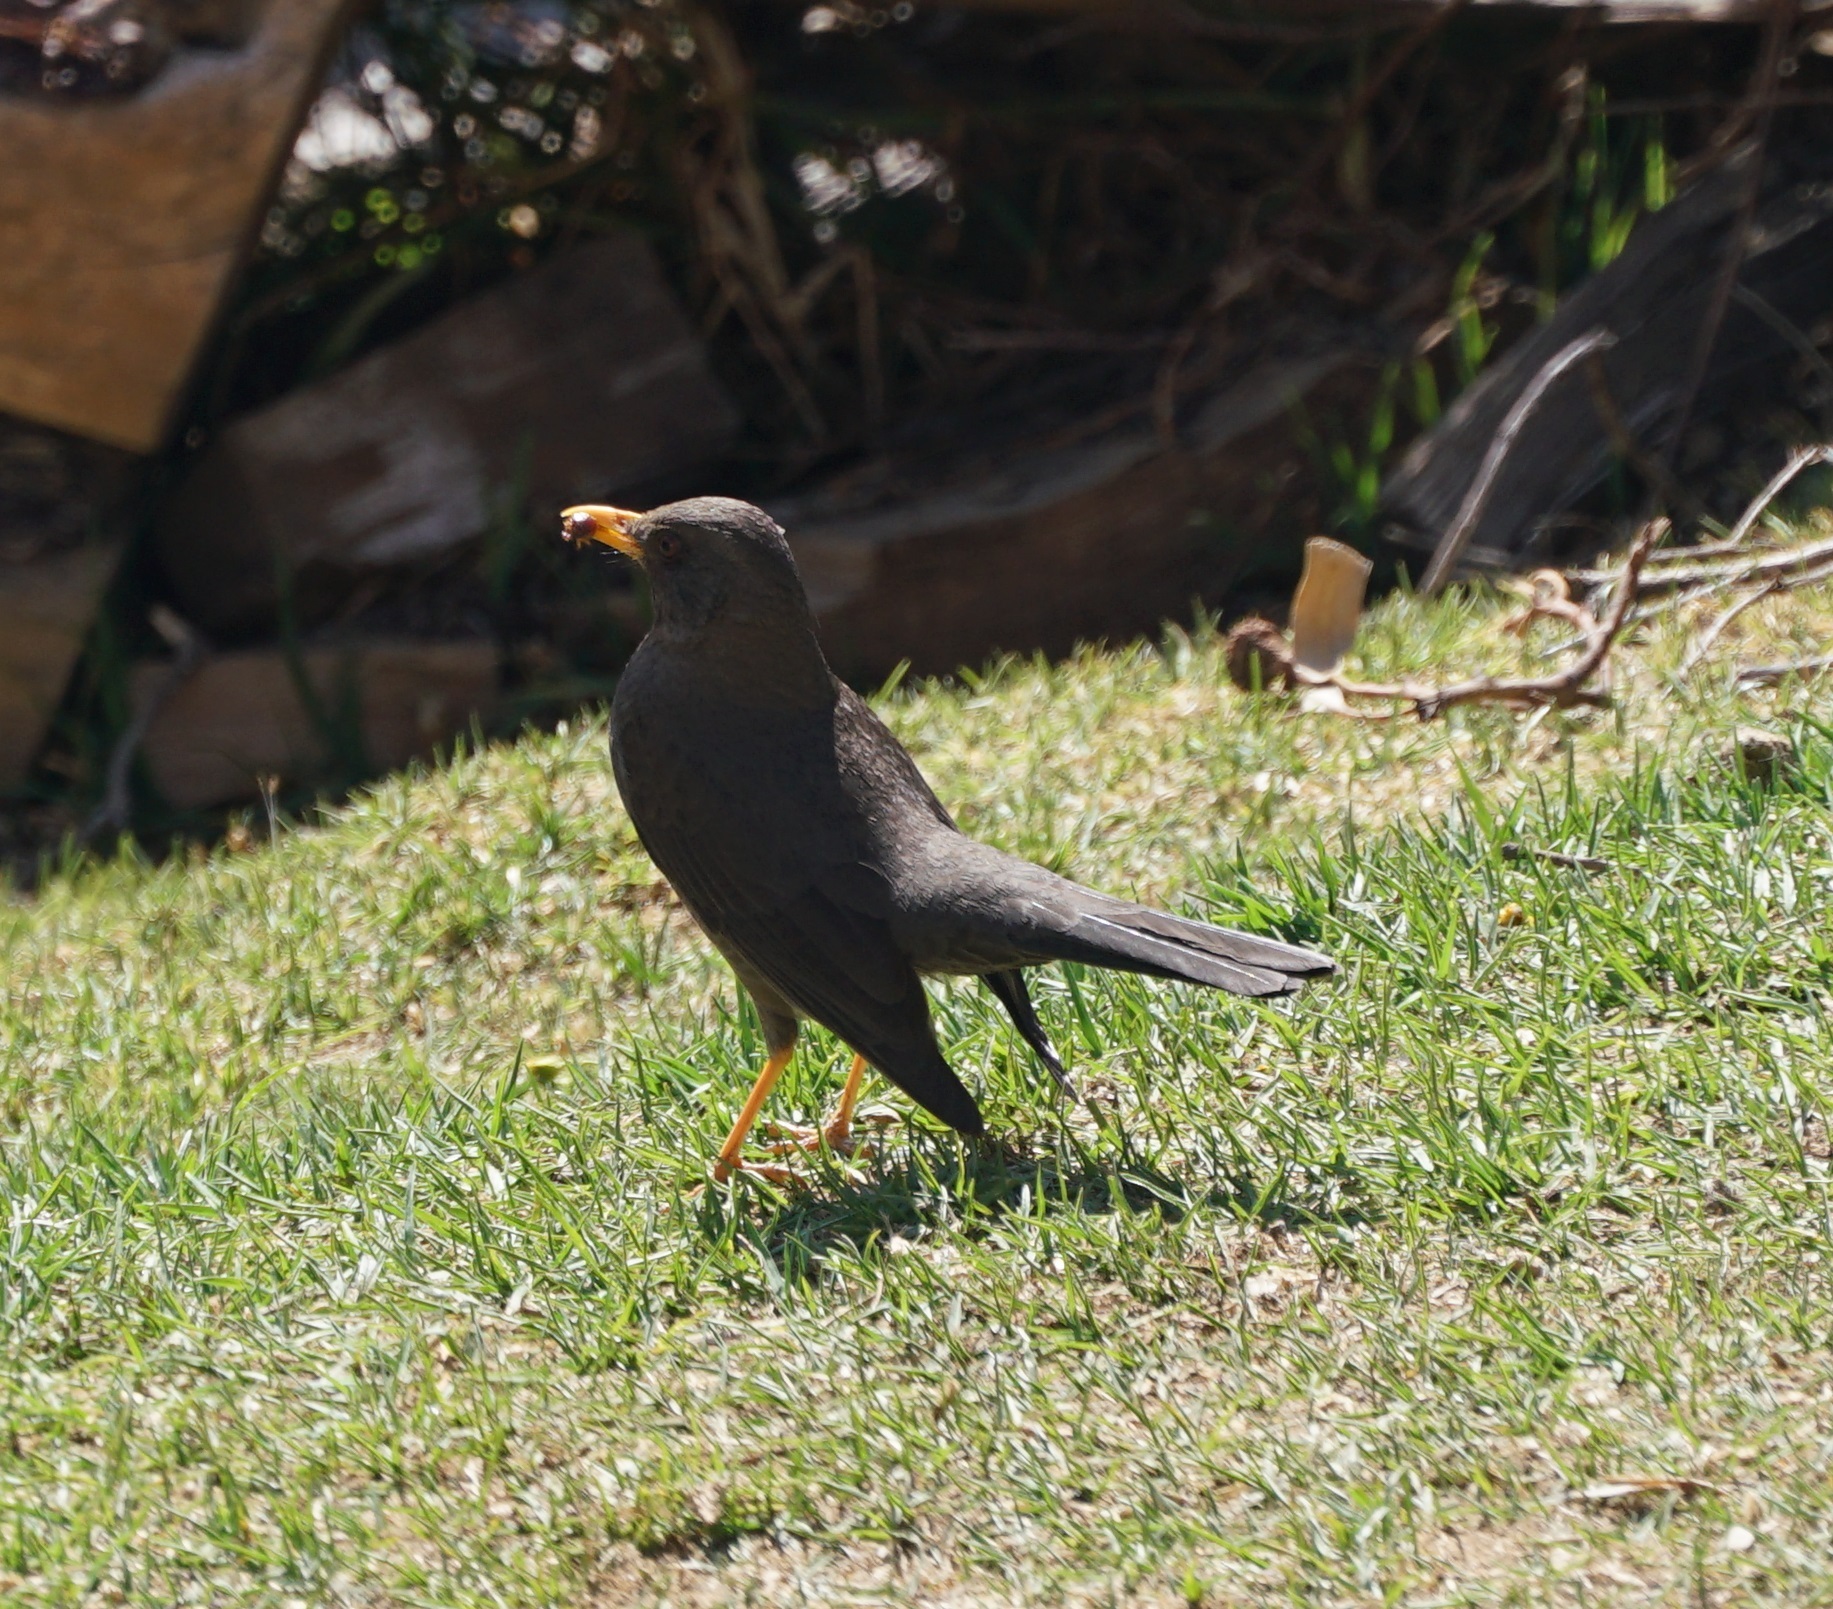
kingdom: Animalia
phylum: Chordata
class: Aves
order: Passeriformes
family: Turdidae
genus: Turdus
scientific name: Turdus chiguanco
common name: Chiguanco thrush
